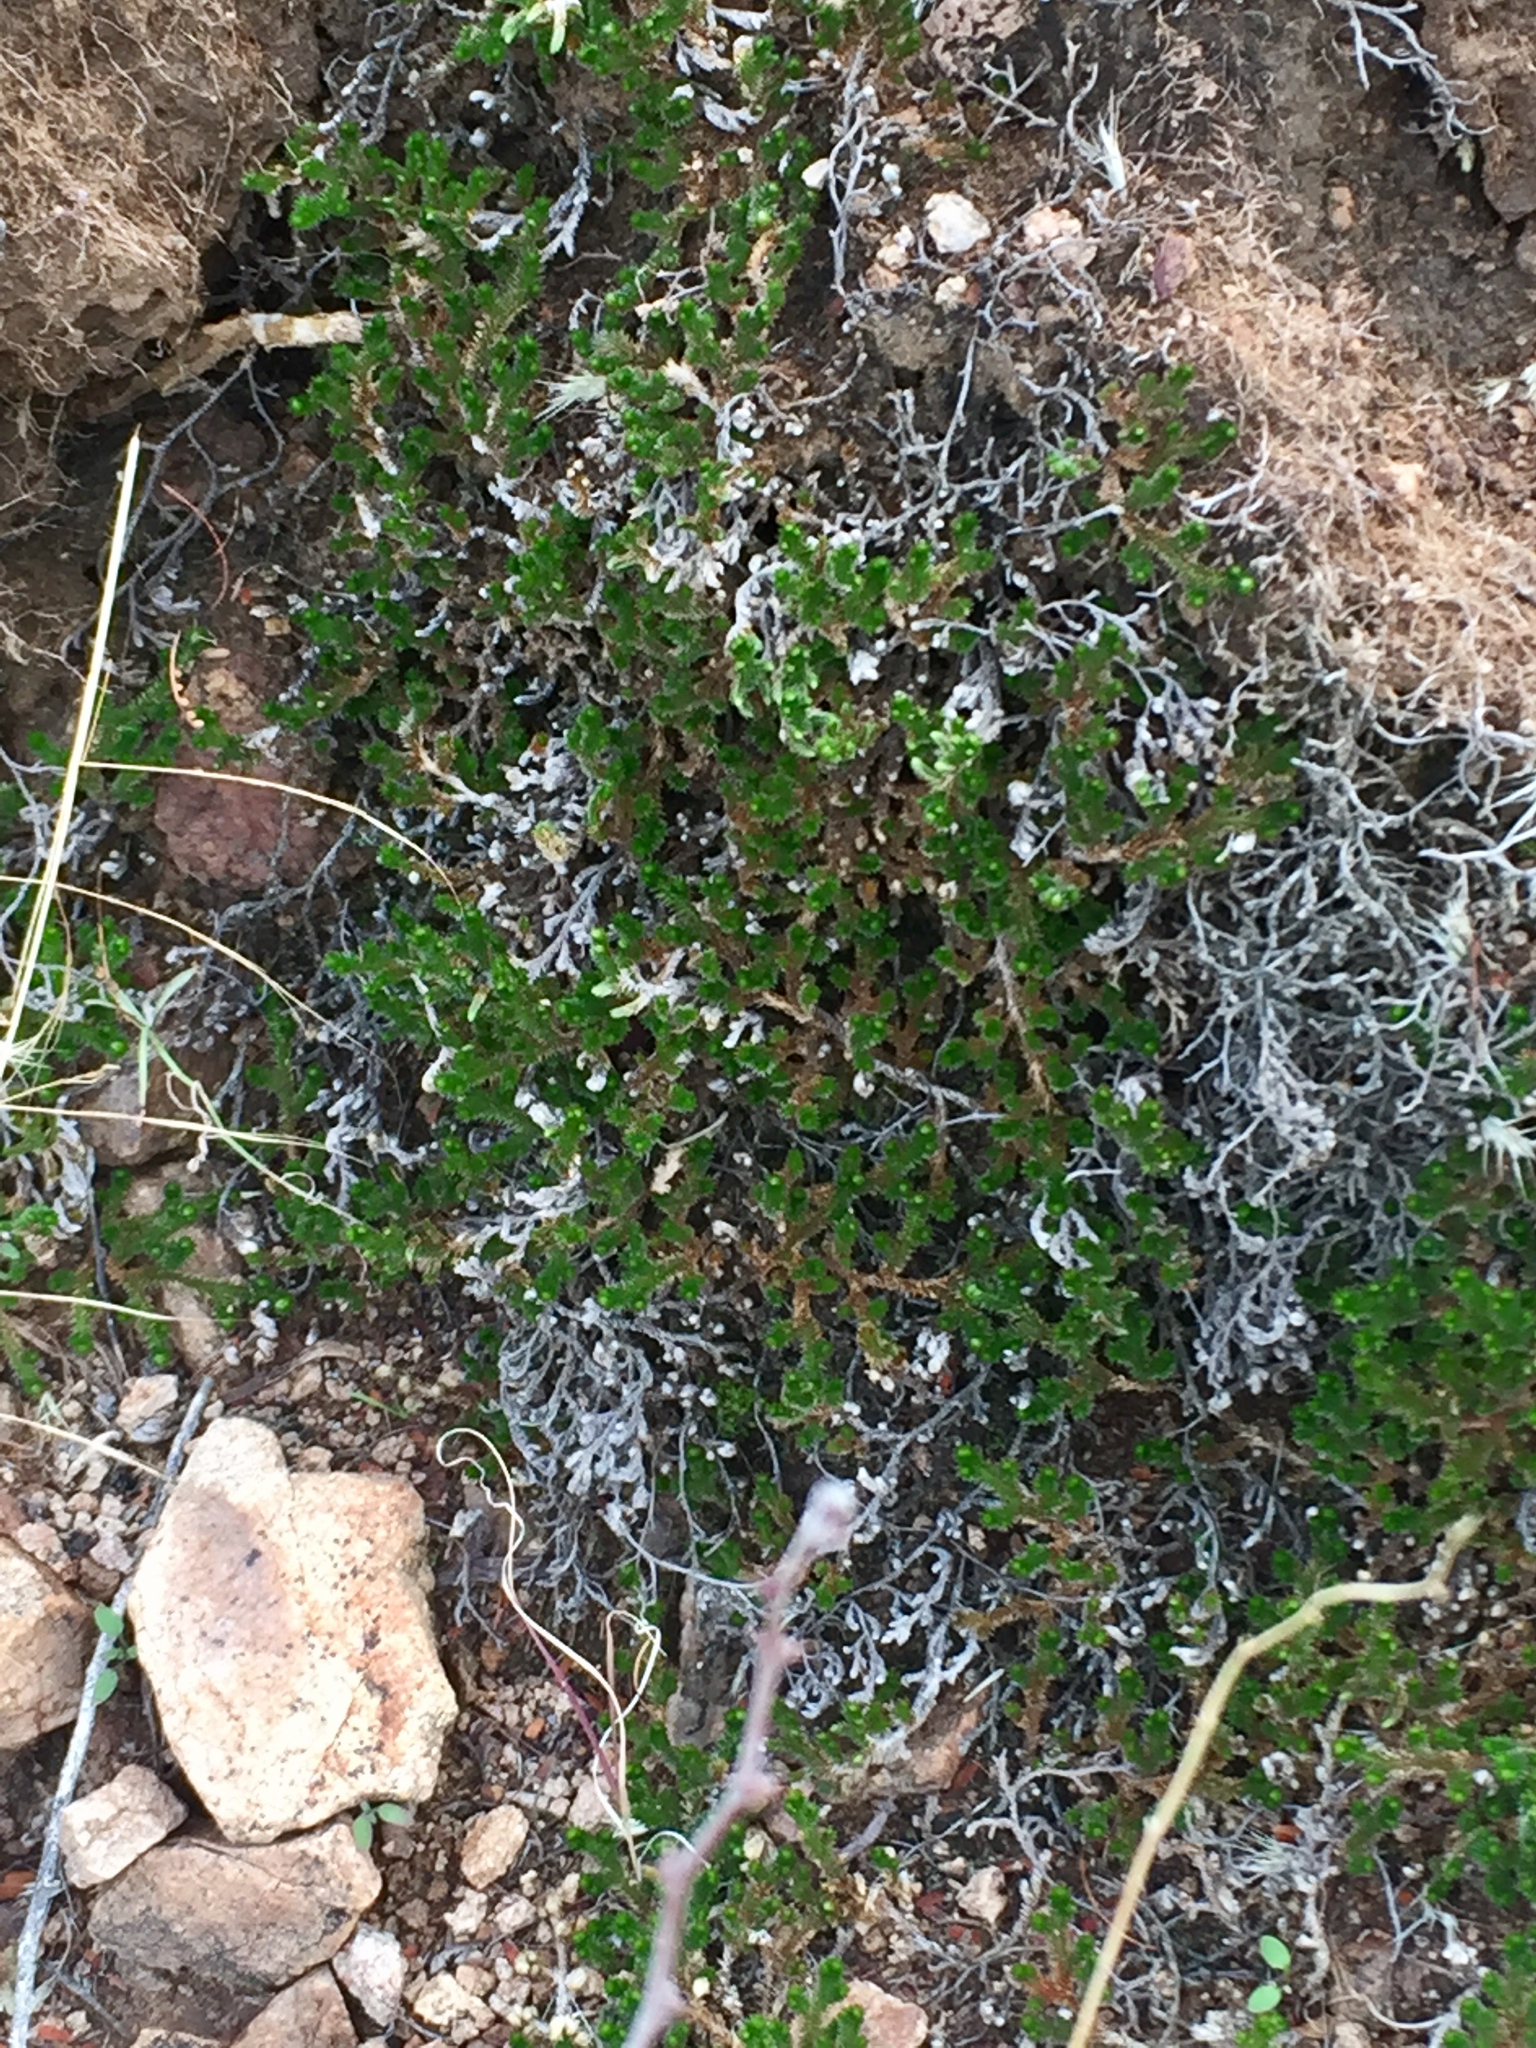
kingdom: Plantae
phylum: Tracheophyta
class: Lycopodiopsida
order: Selaginellales
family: Selaginellaceae
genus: Selaginella
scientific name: Selaginella arizonica
